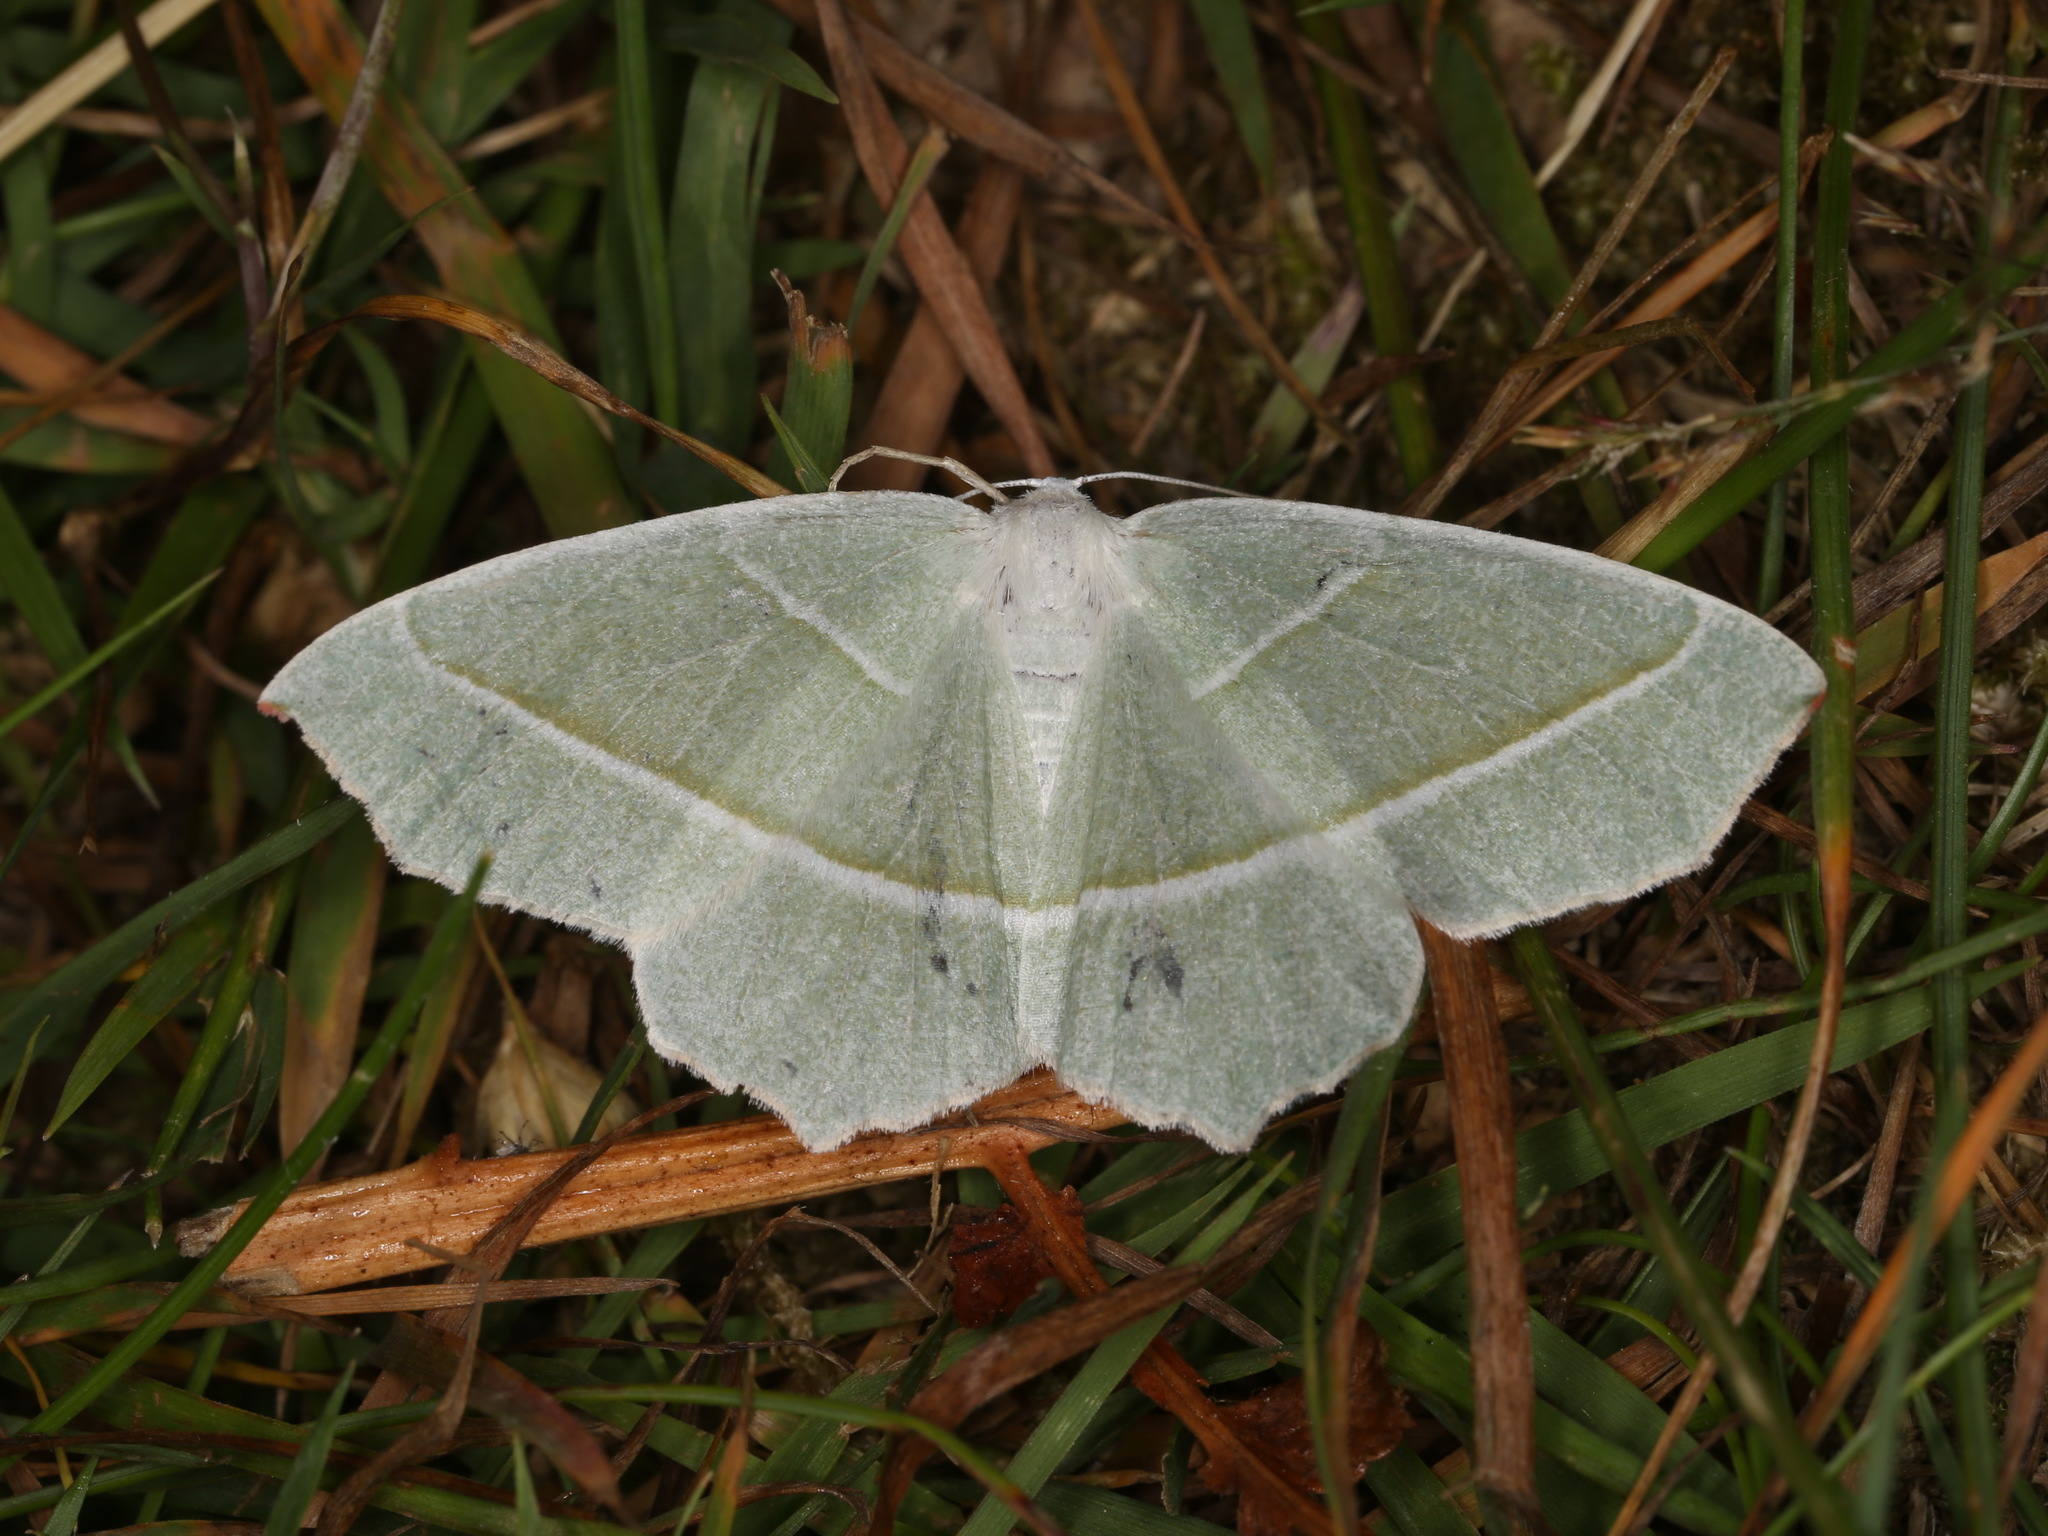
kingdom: Animalia
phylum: Arthropoda
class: Insecta
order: Lepidoptera
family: Geometridae
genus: Campaea
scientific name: Campaea margaritaria
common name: Light emerald
